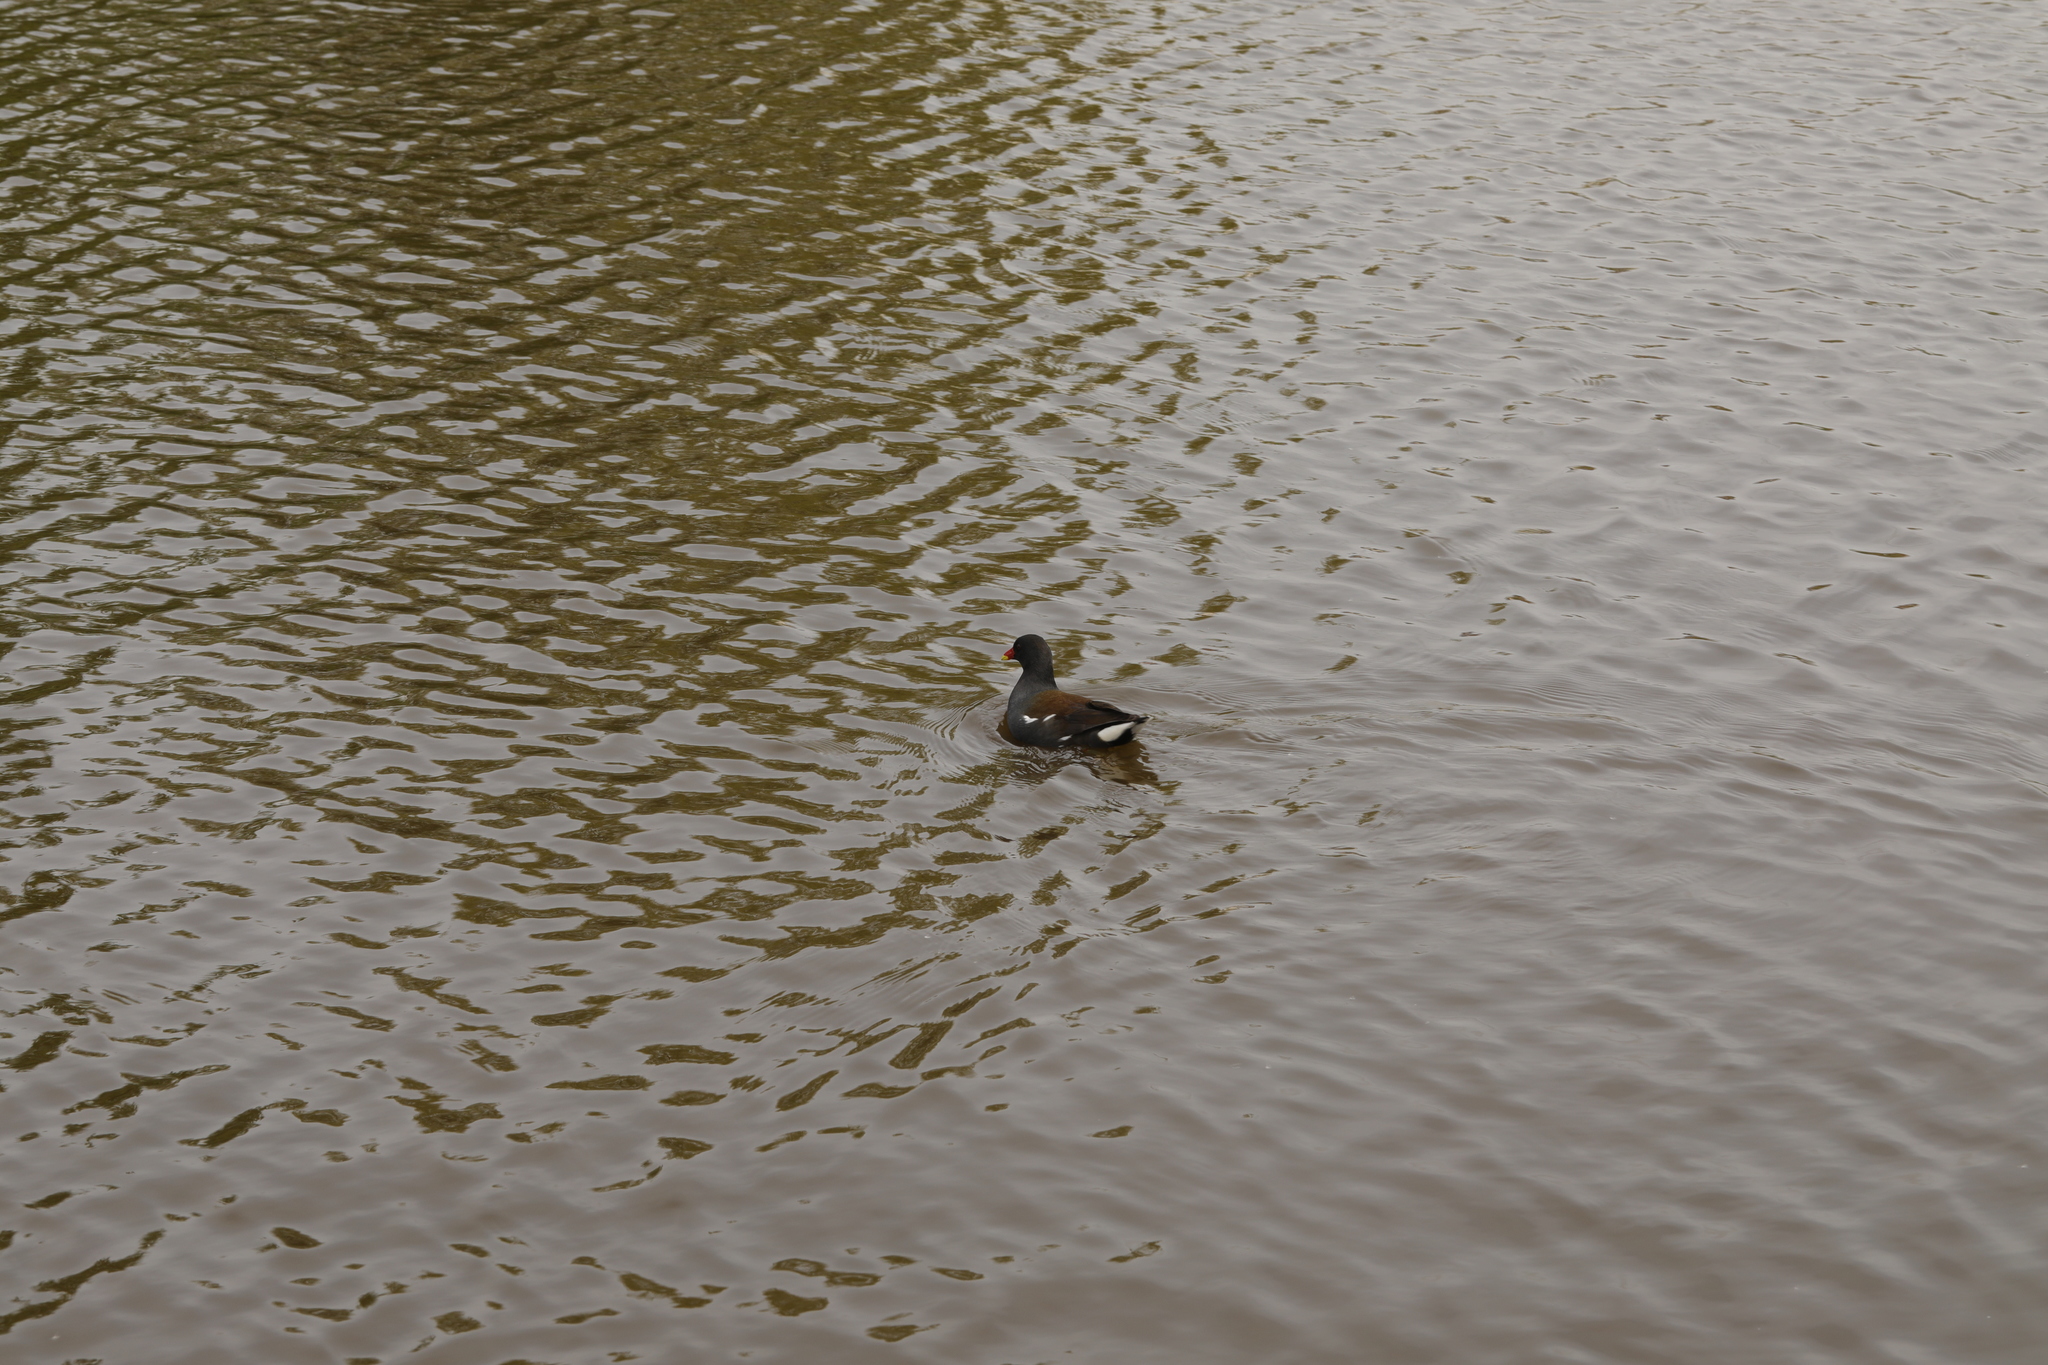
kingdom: Animalia
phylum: Chordata
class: Aves
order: Gruiformes
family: Rallidae
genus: Gallinula
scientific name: Gallinula chloropus
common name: Common moorhen
